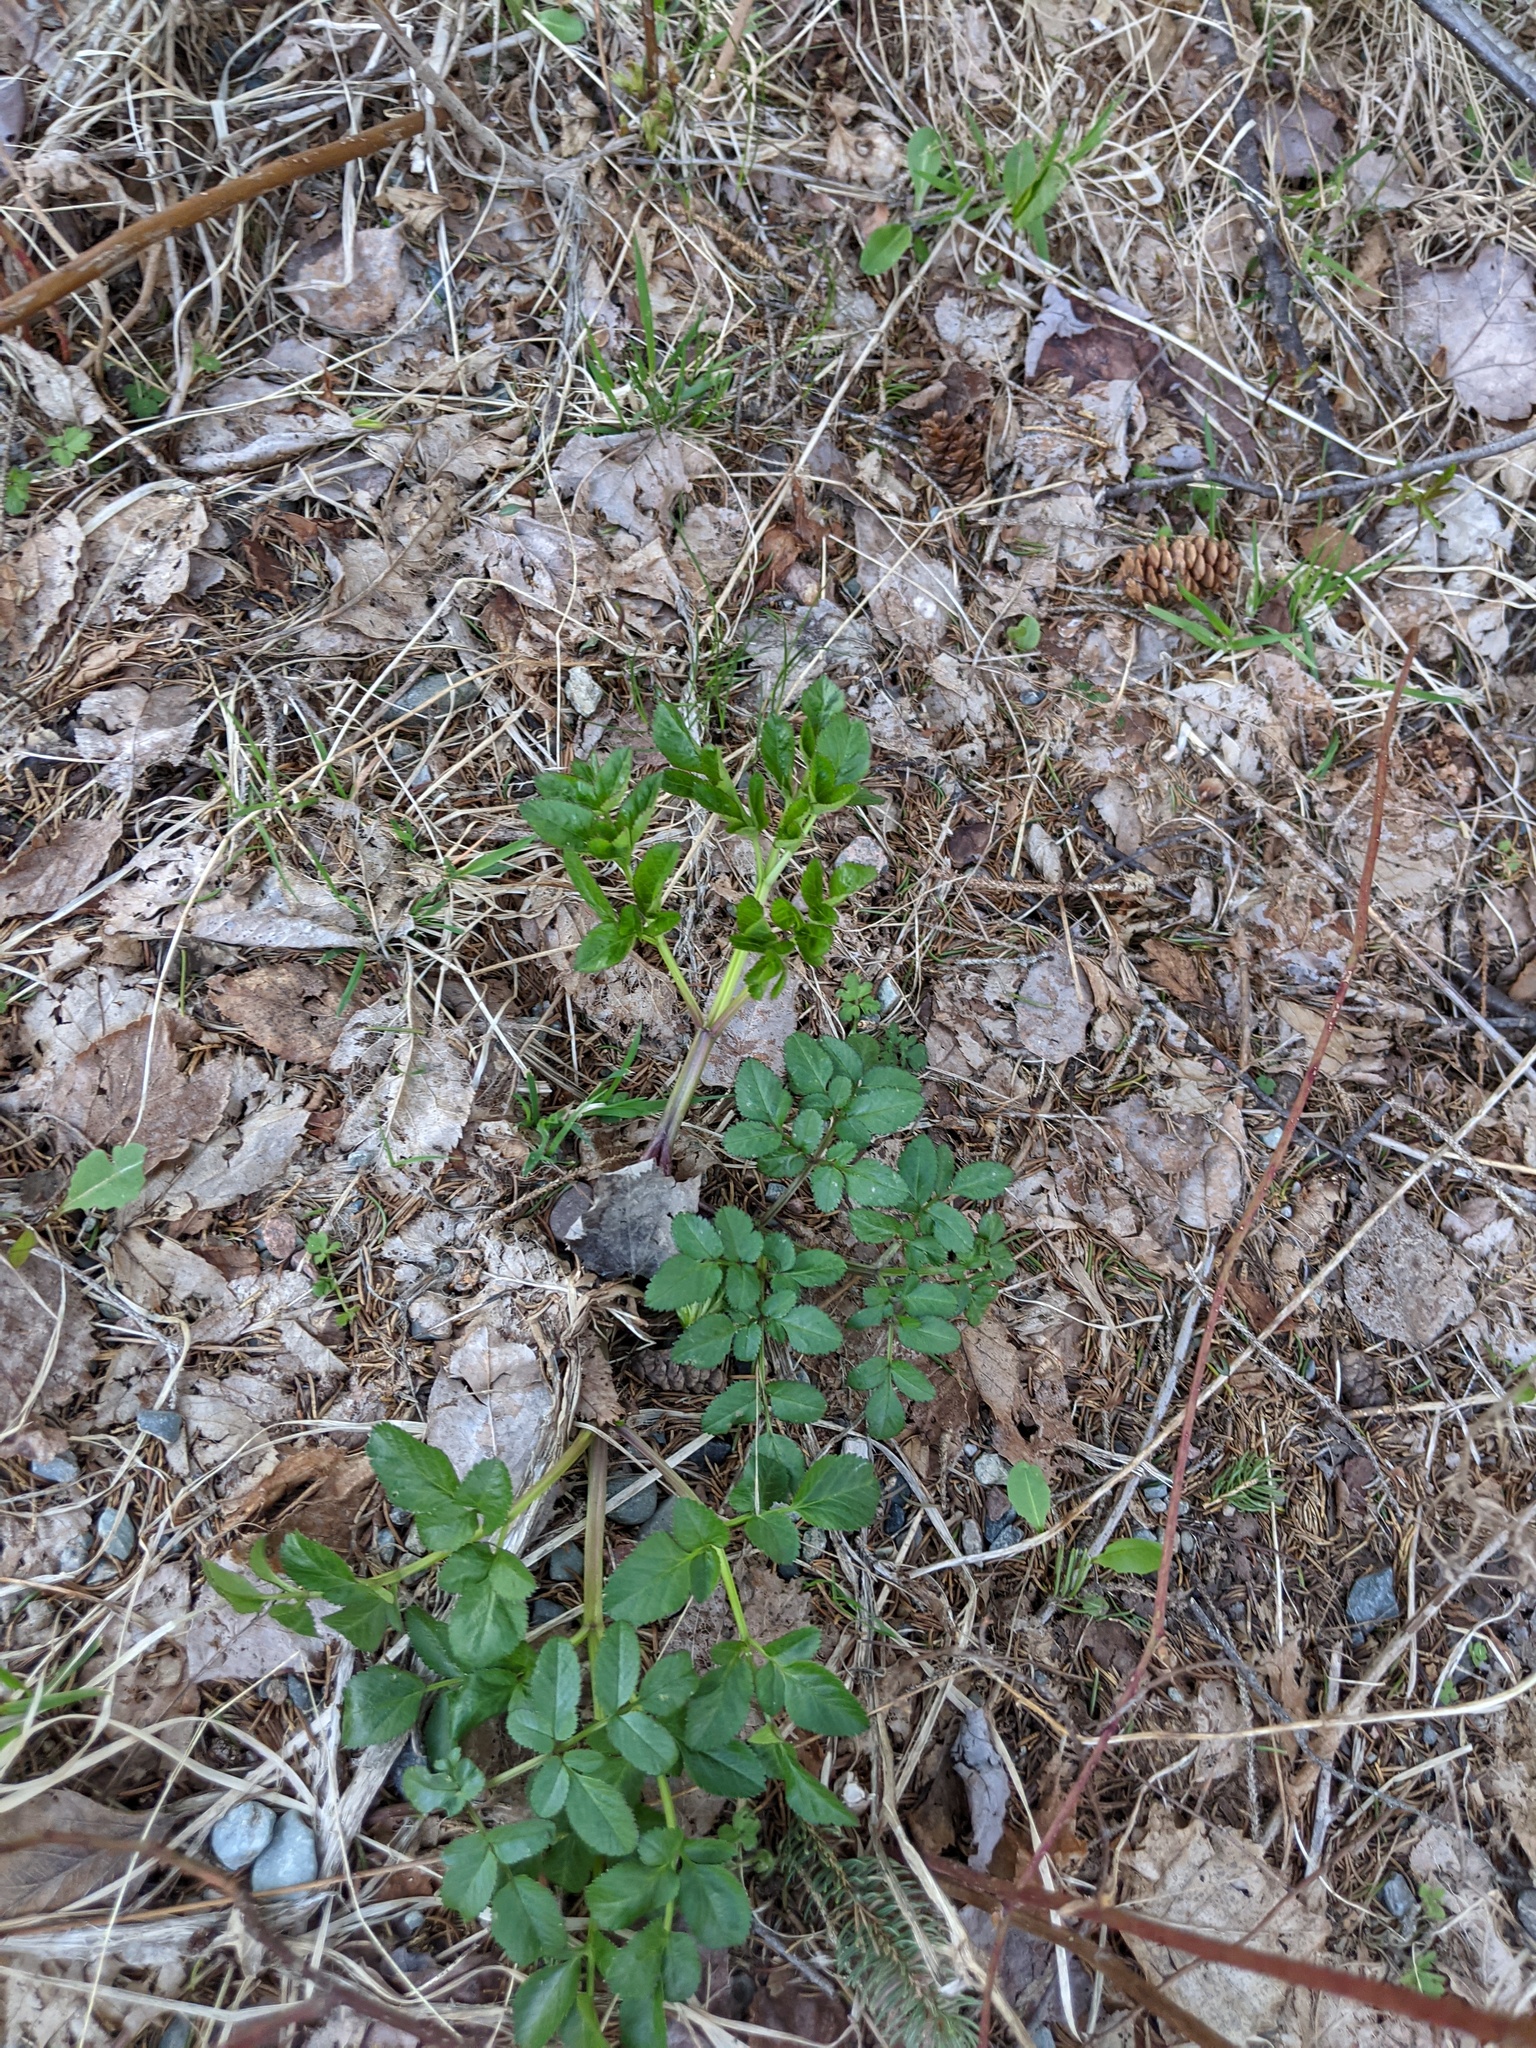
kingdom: Plantae
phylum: Tracheophyta
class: Magnoliopsida
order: Apiales
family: Apiaceae
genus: Angelica
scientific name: Angelica sylvestris
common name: Wild angelica
